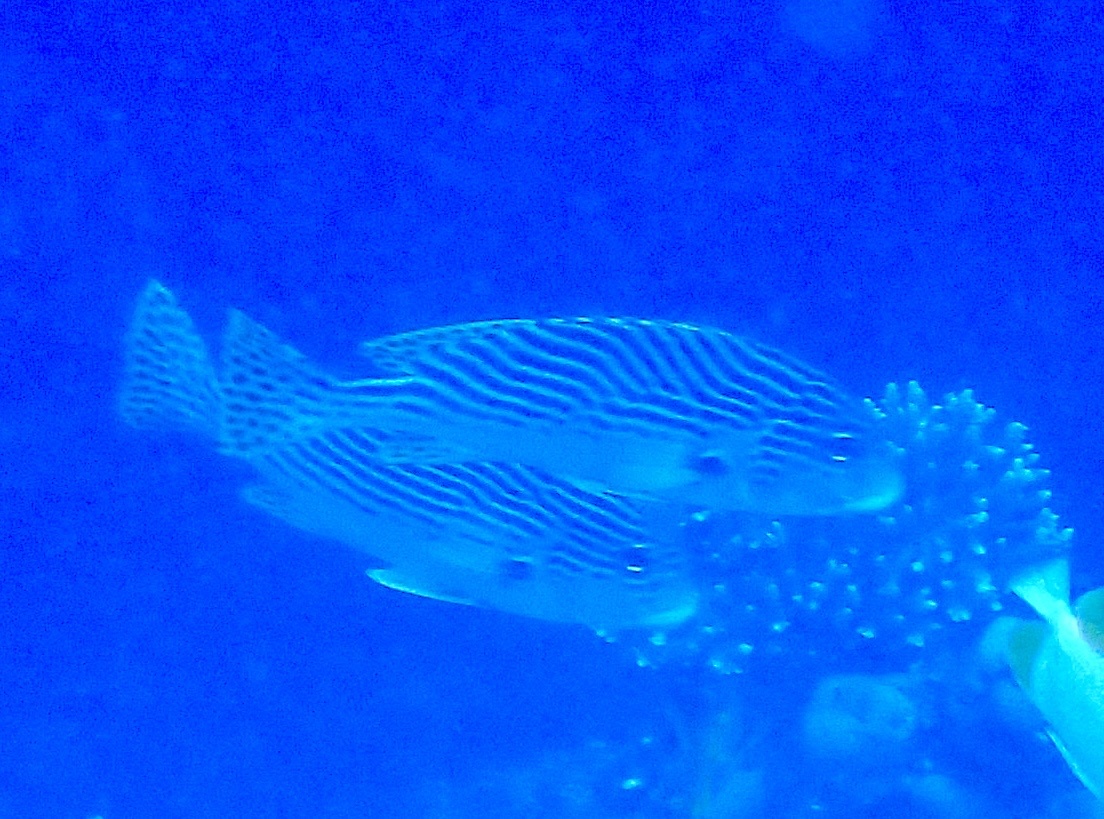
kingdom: Animalia
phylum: Chordata
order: Perciformes
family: Haemulidae
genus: Plectorhinchus
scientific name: Plectorhinchus lineatus
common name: Goldman's sweetlips
